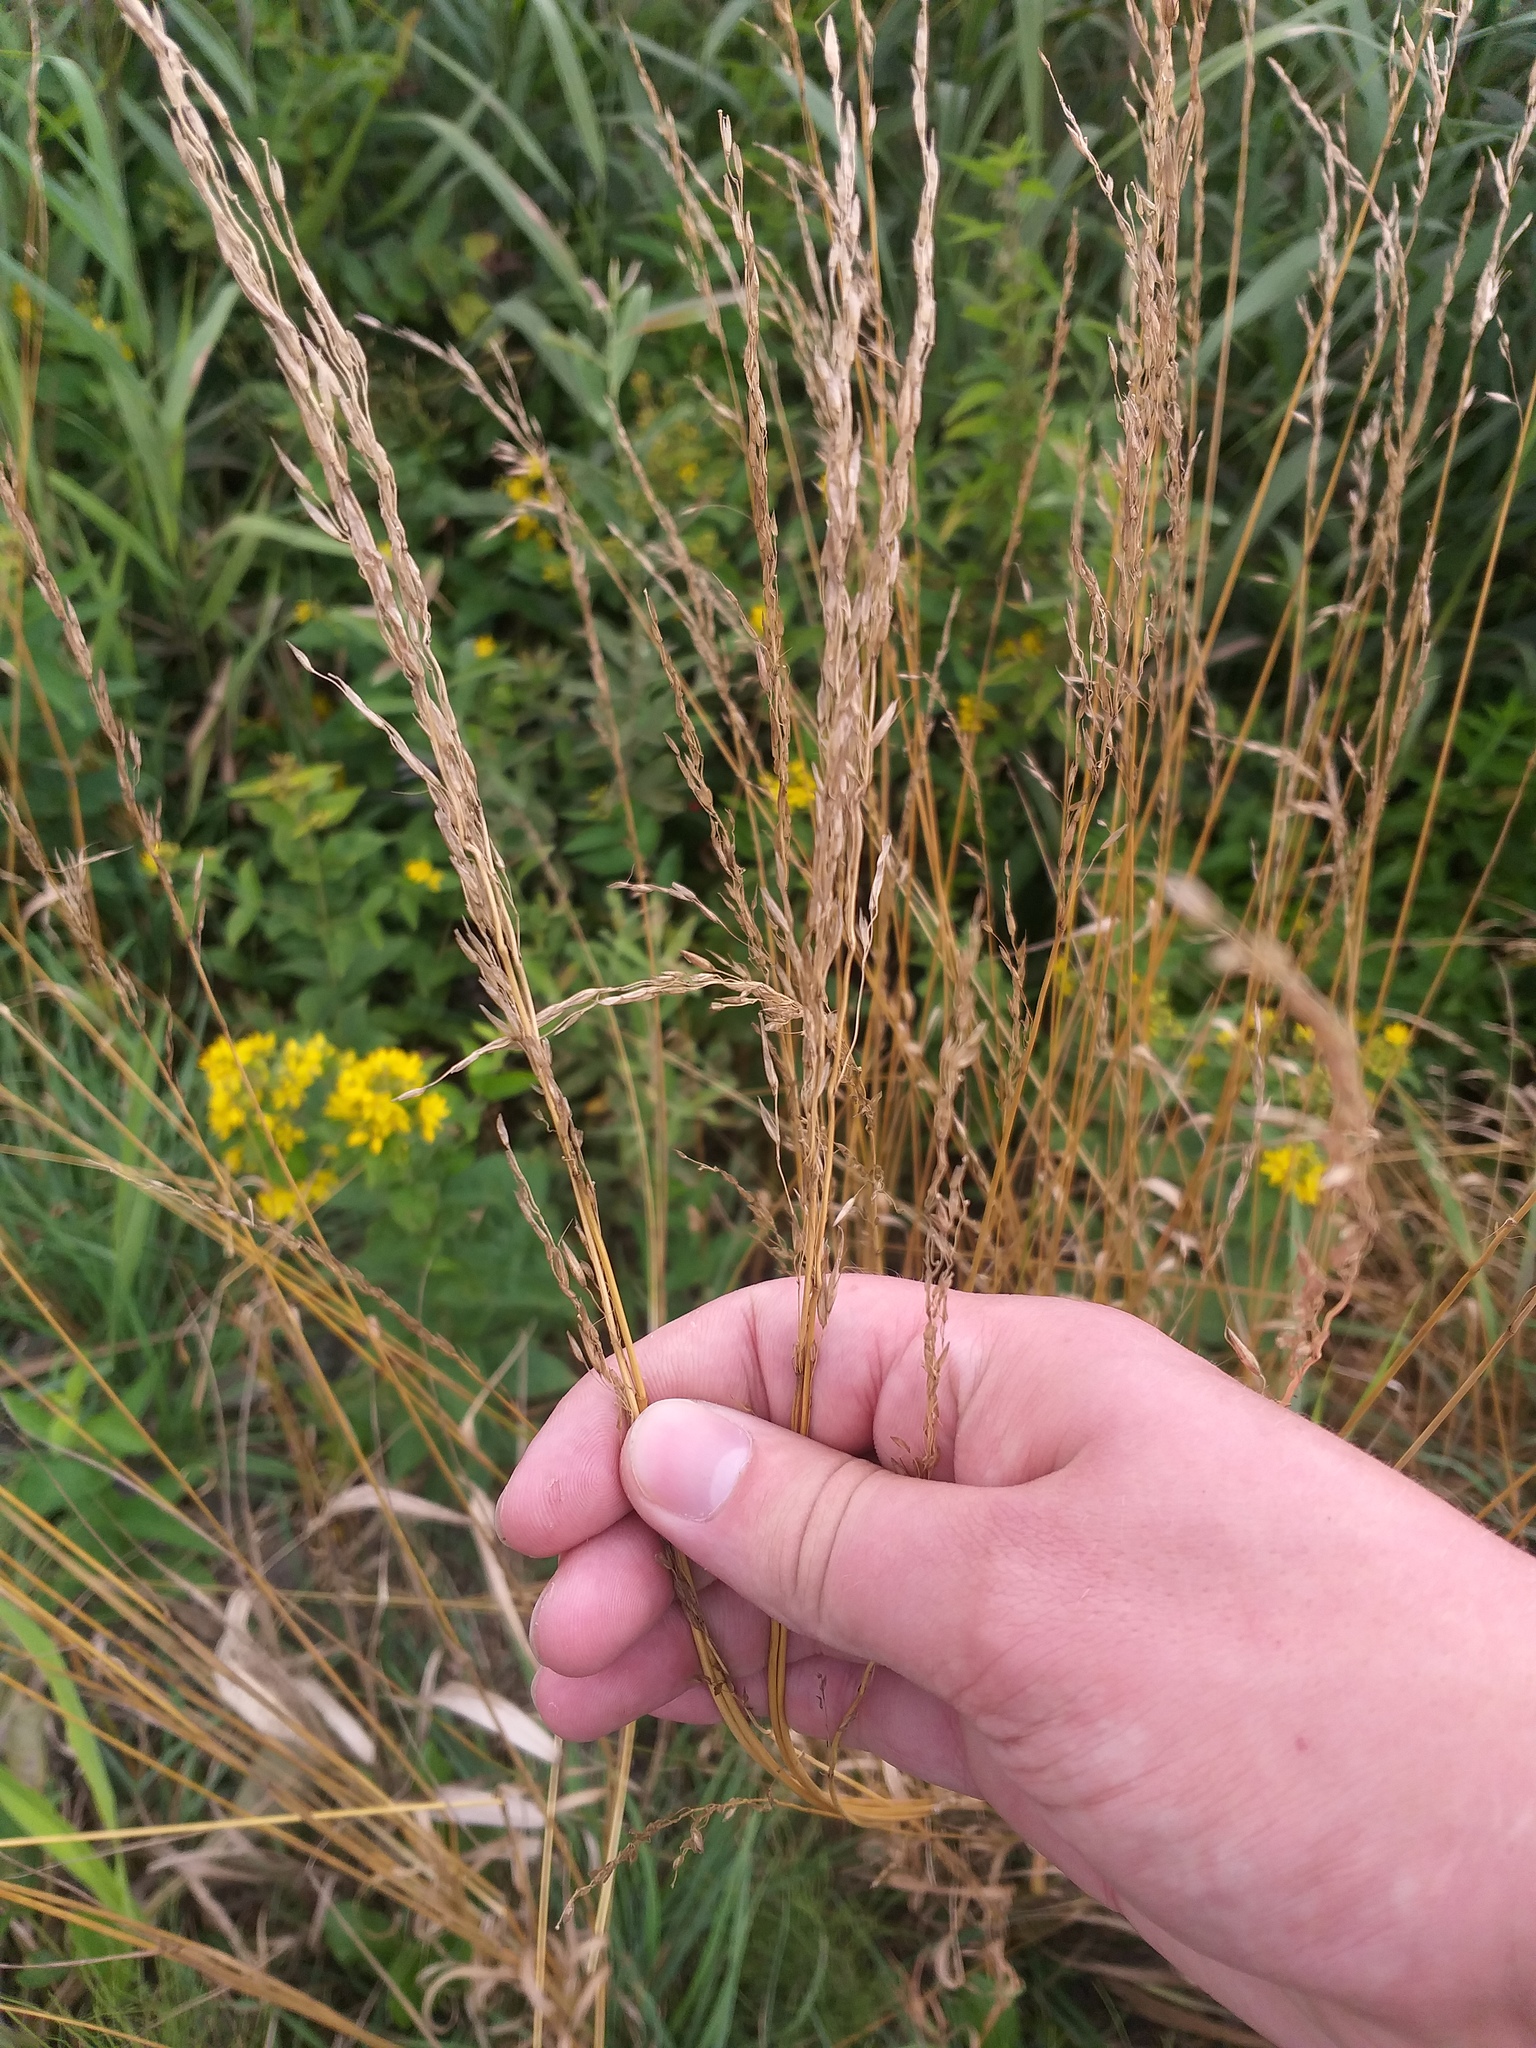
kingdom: Plantae
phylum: Tracheophyta
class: Liliopsida
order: Poales
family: Poaceae
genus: Arrhenatherum
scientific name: Arrhenatherum elatius
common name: Tall oatgrass
